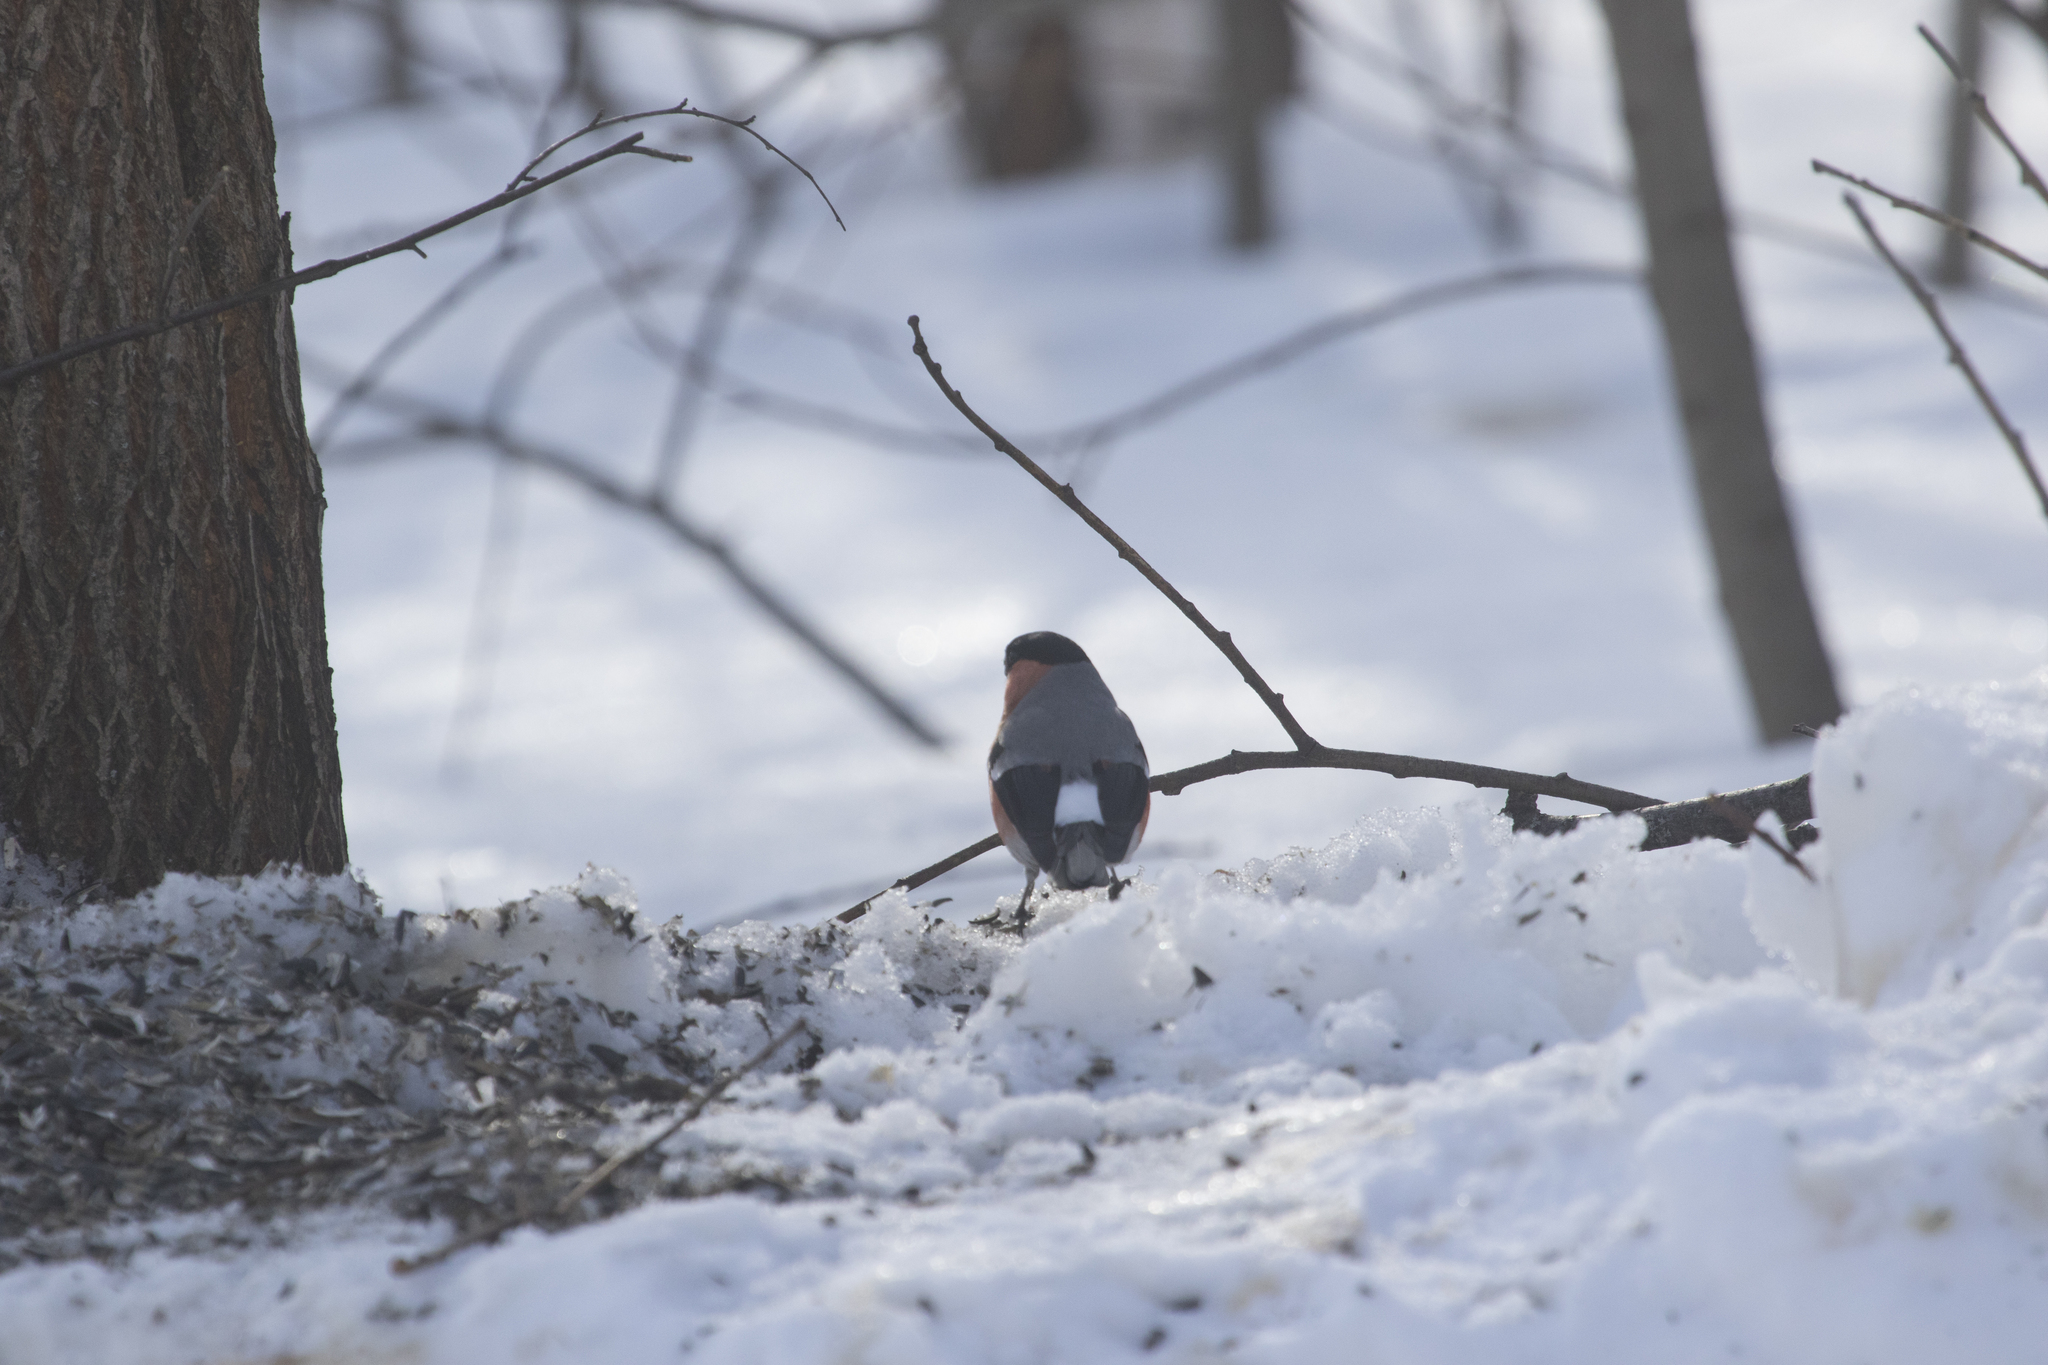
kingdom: Animalia
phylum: Chordata
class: Aves
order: Passeriformes
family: Fringillidae
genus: Pyrrhula
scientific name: Pyrrhula pyrrhula
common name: Eurasian bullfinch
